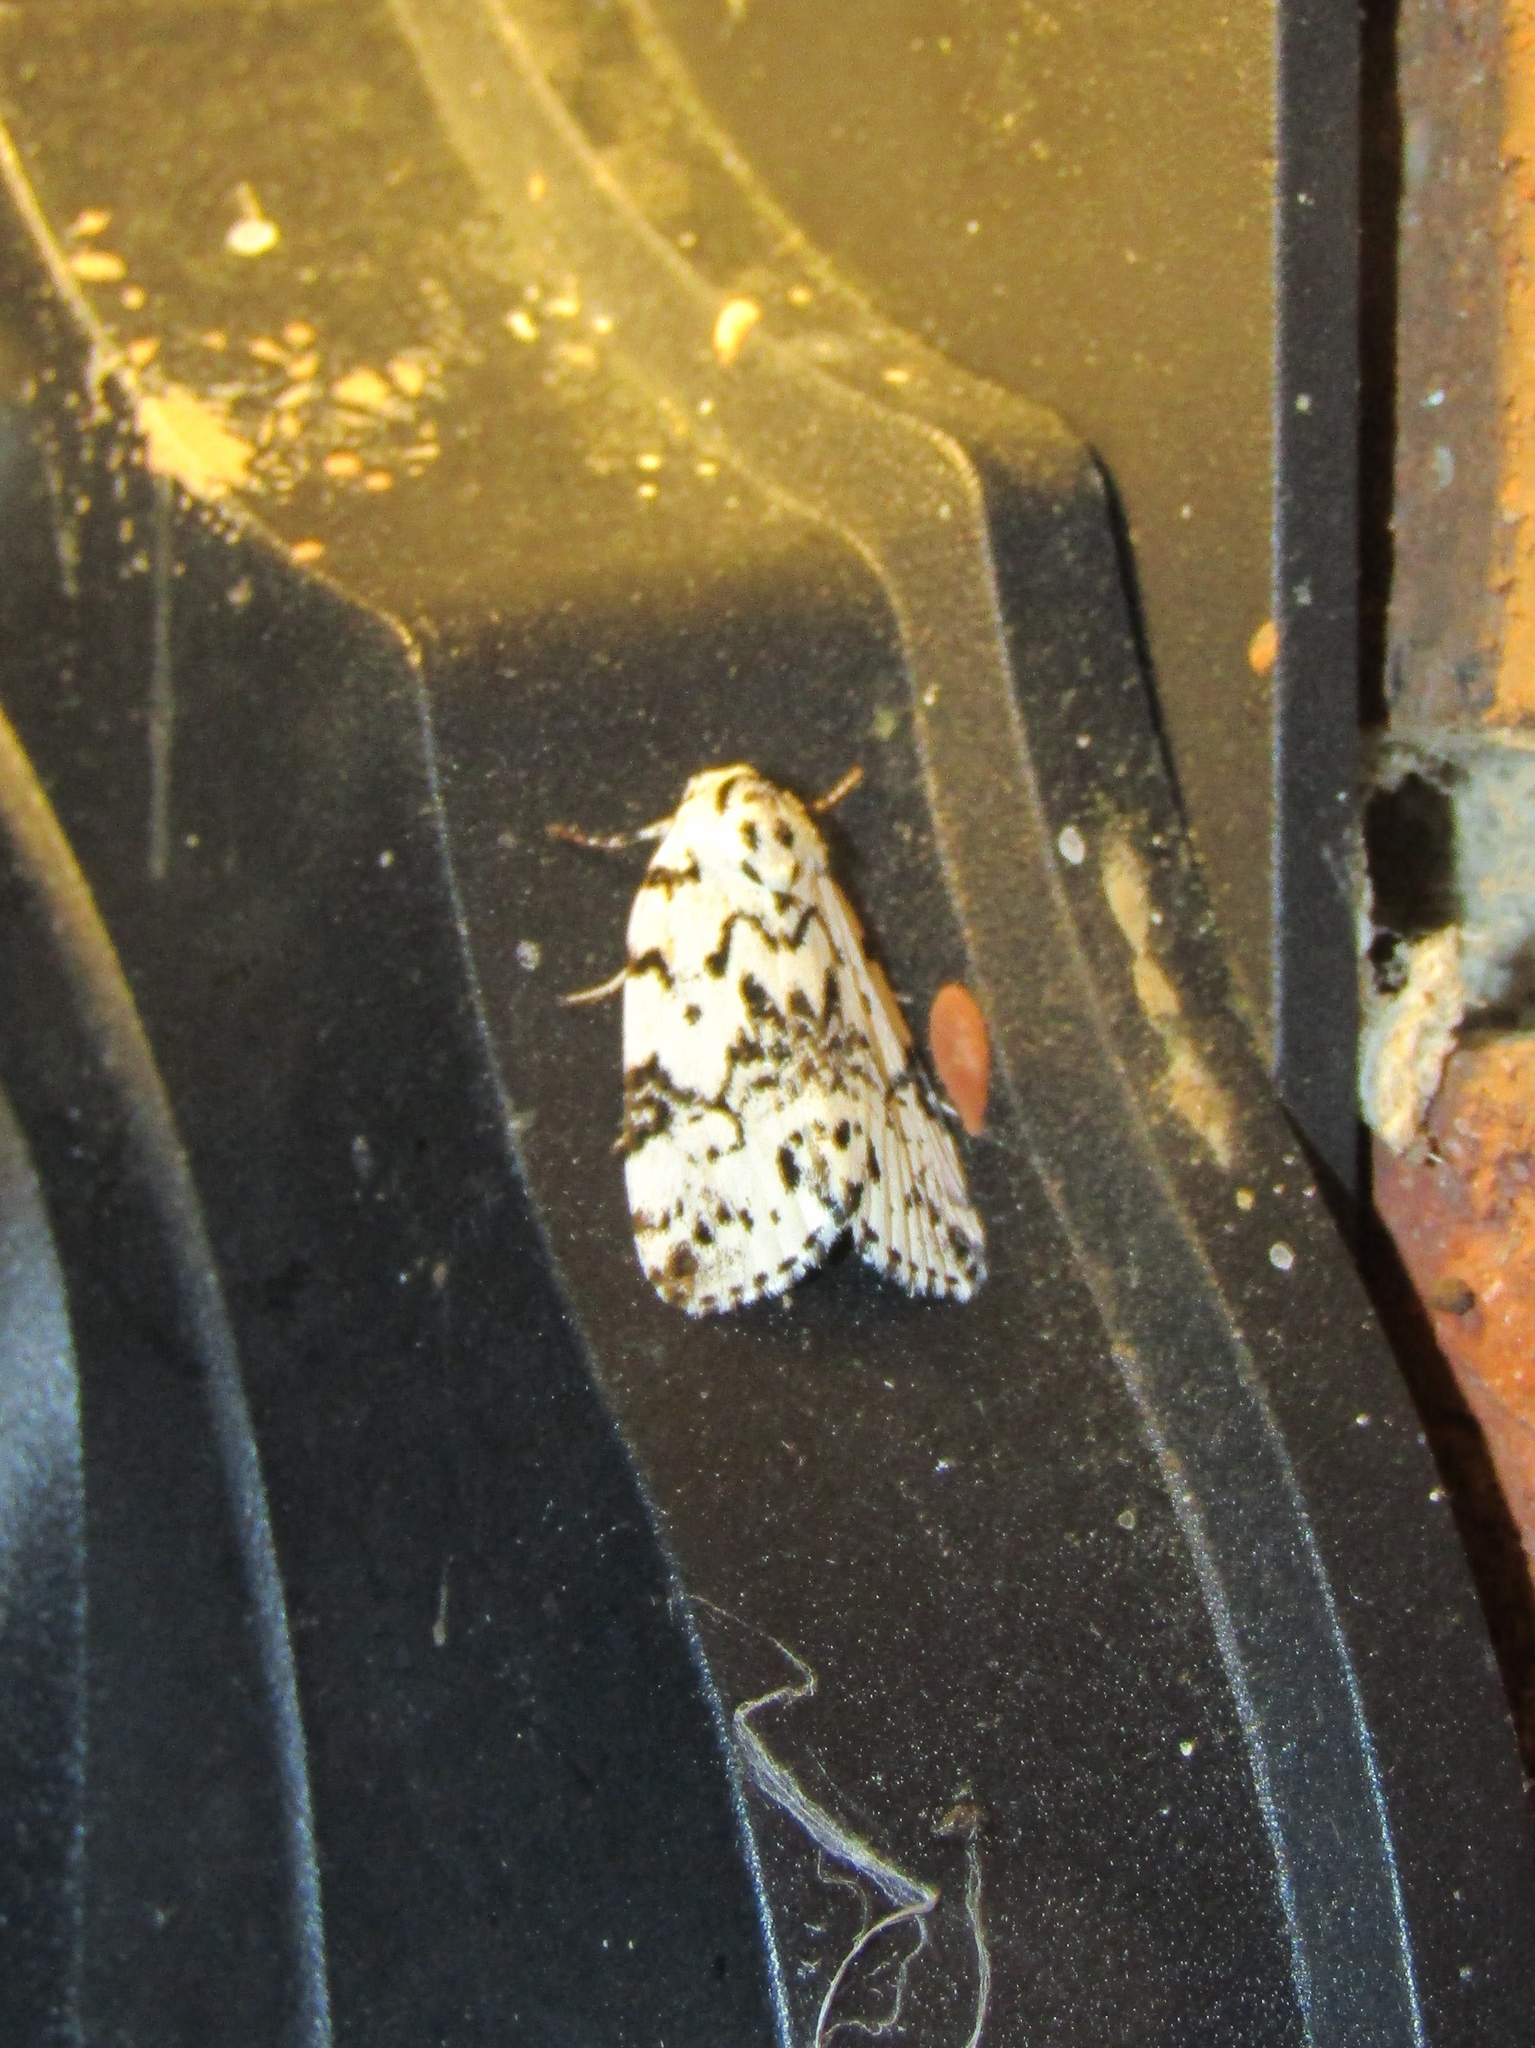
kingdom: Animalia
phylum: Arthropoda
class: Insecta
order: Lepidoptera
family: Noctuidae
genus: Polygrammate
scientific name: Polygrammate hebraeicum
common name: Hebrew moth
